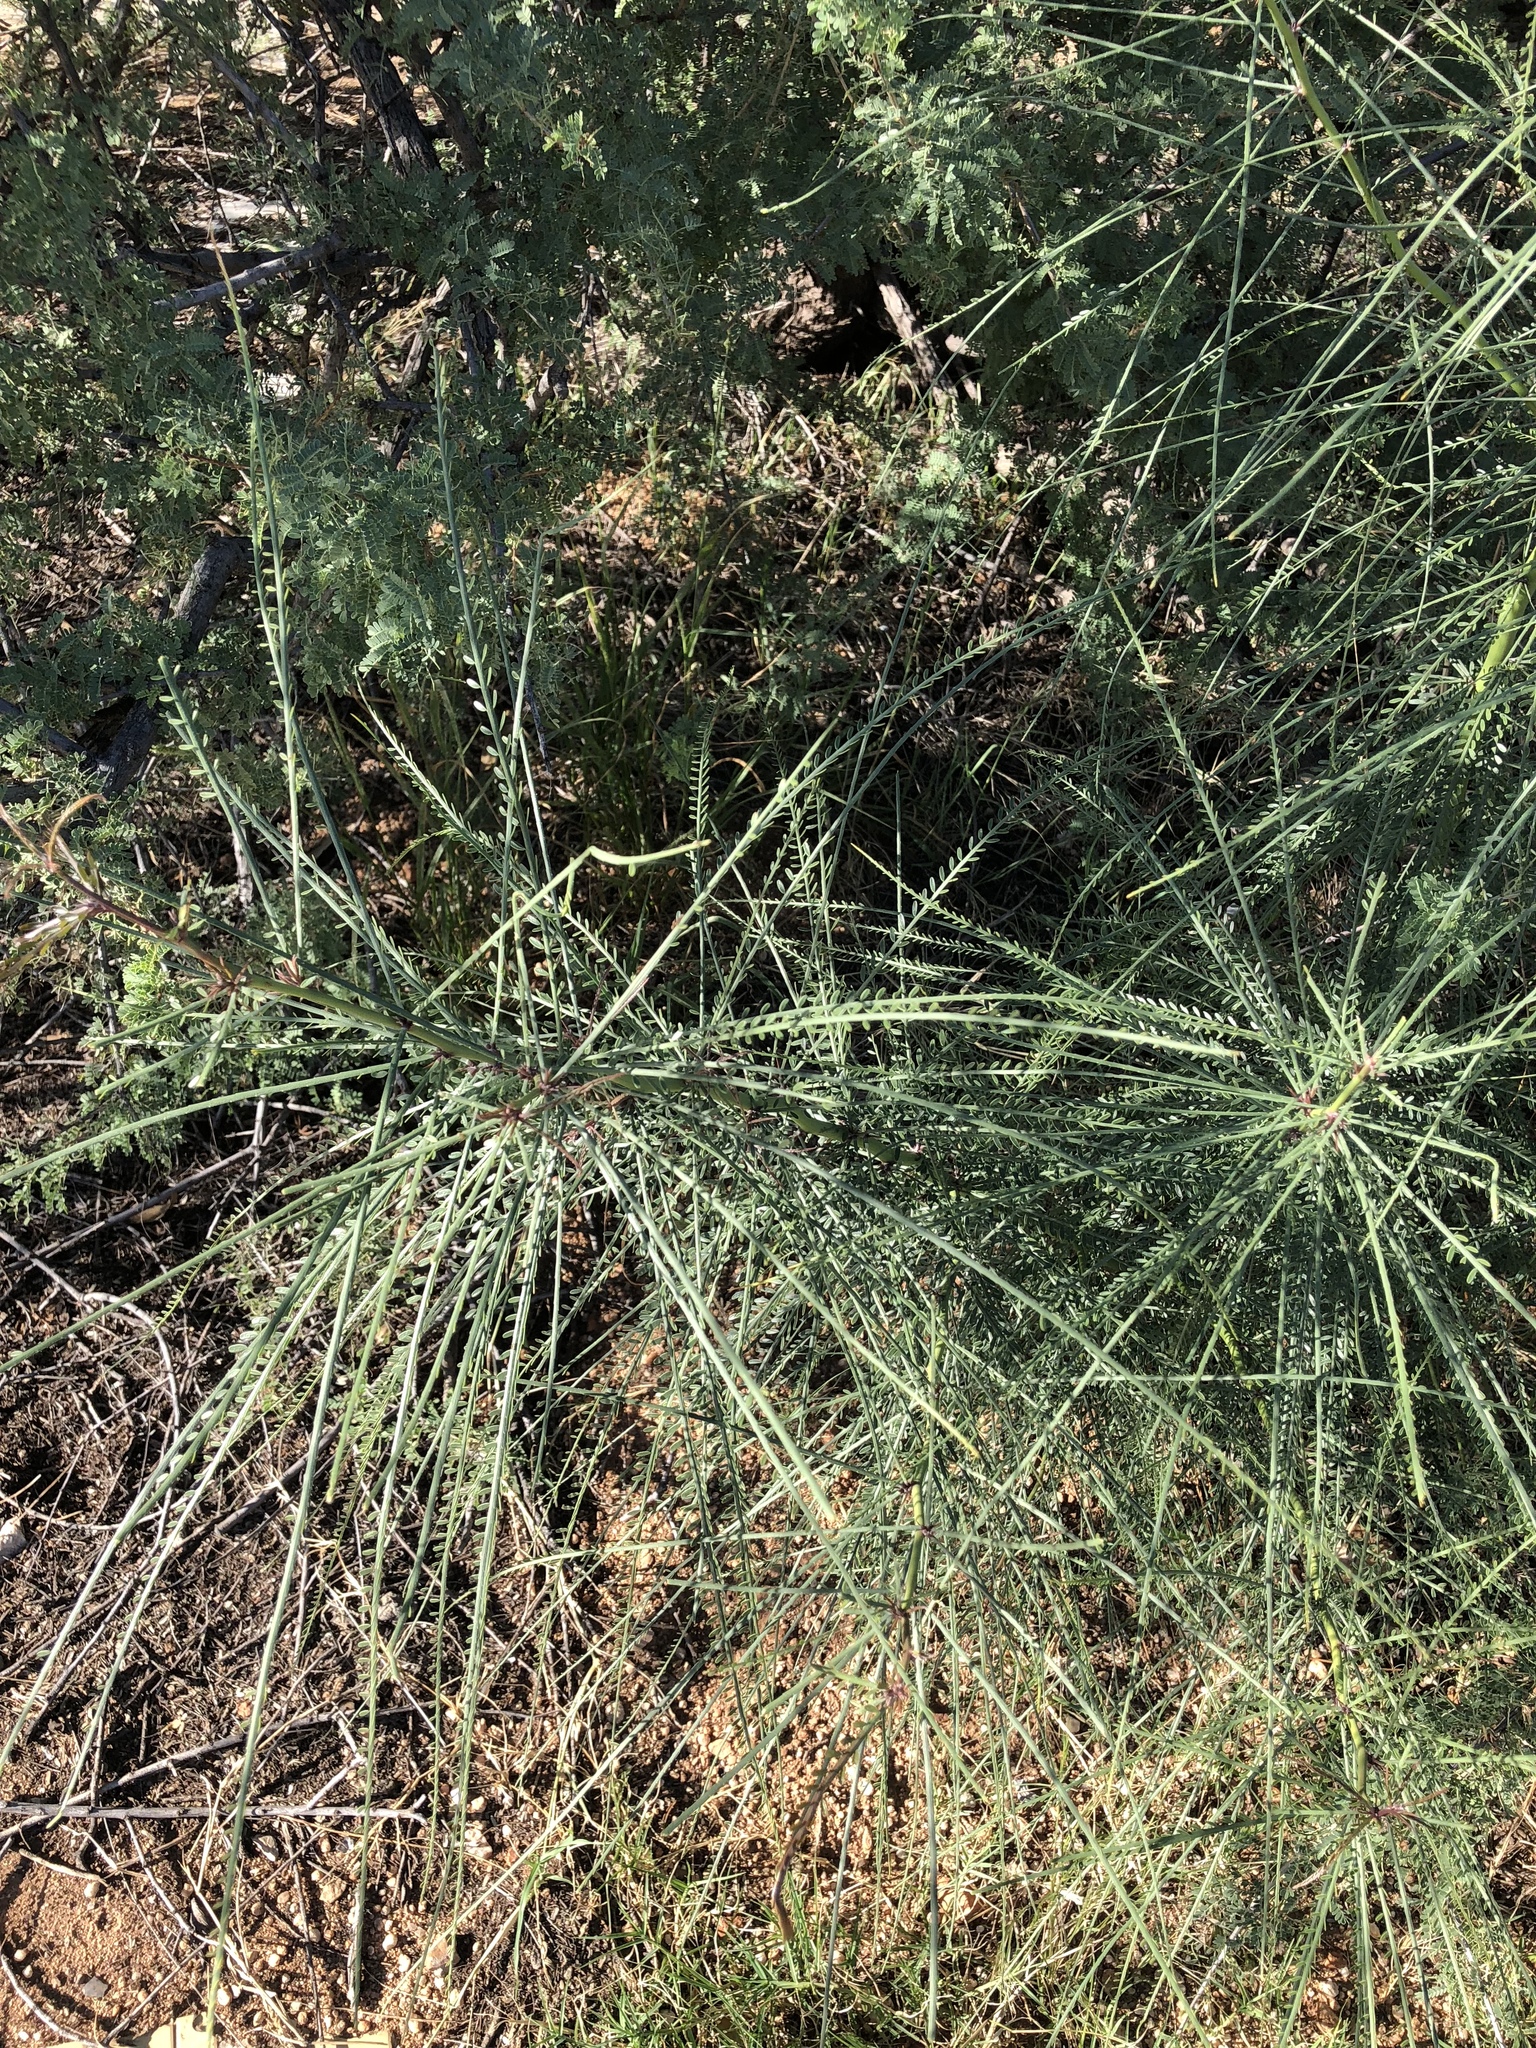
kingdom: Plantae
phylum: Tracheophyta
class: Magnoliopsida
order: Fabales
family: Fabaceae
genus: Parkinsonia
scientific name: Parkinsonia aculeata
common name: Jerusalem thorn
